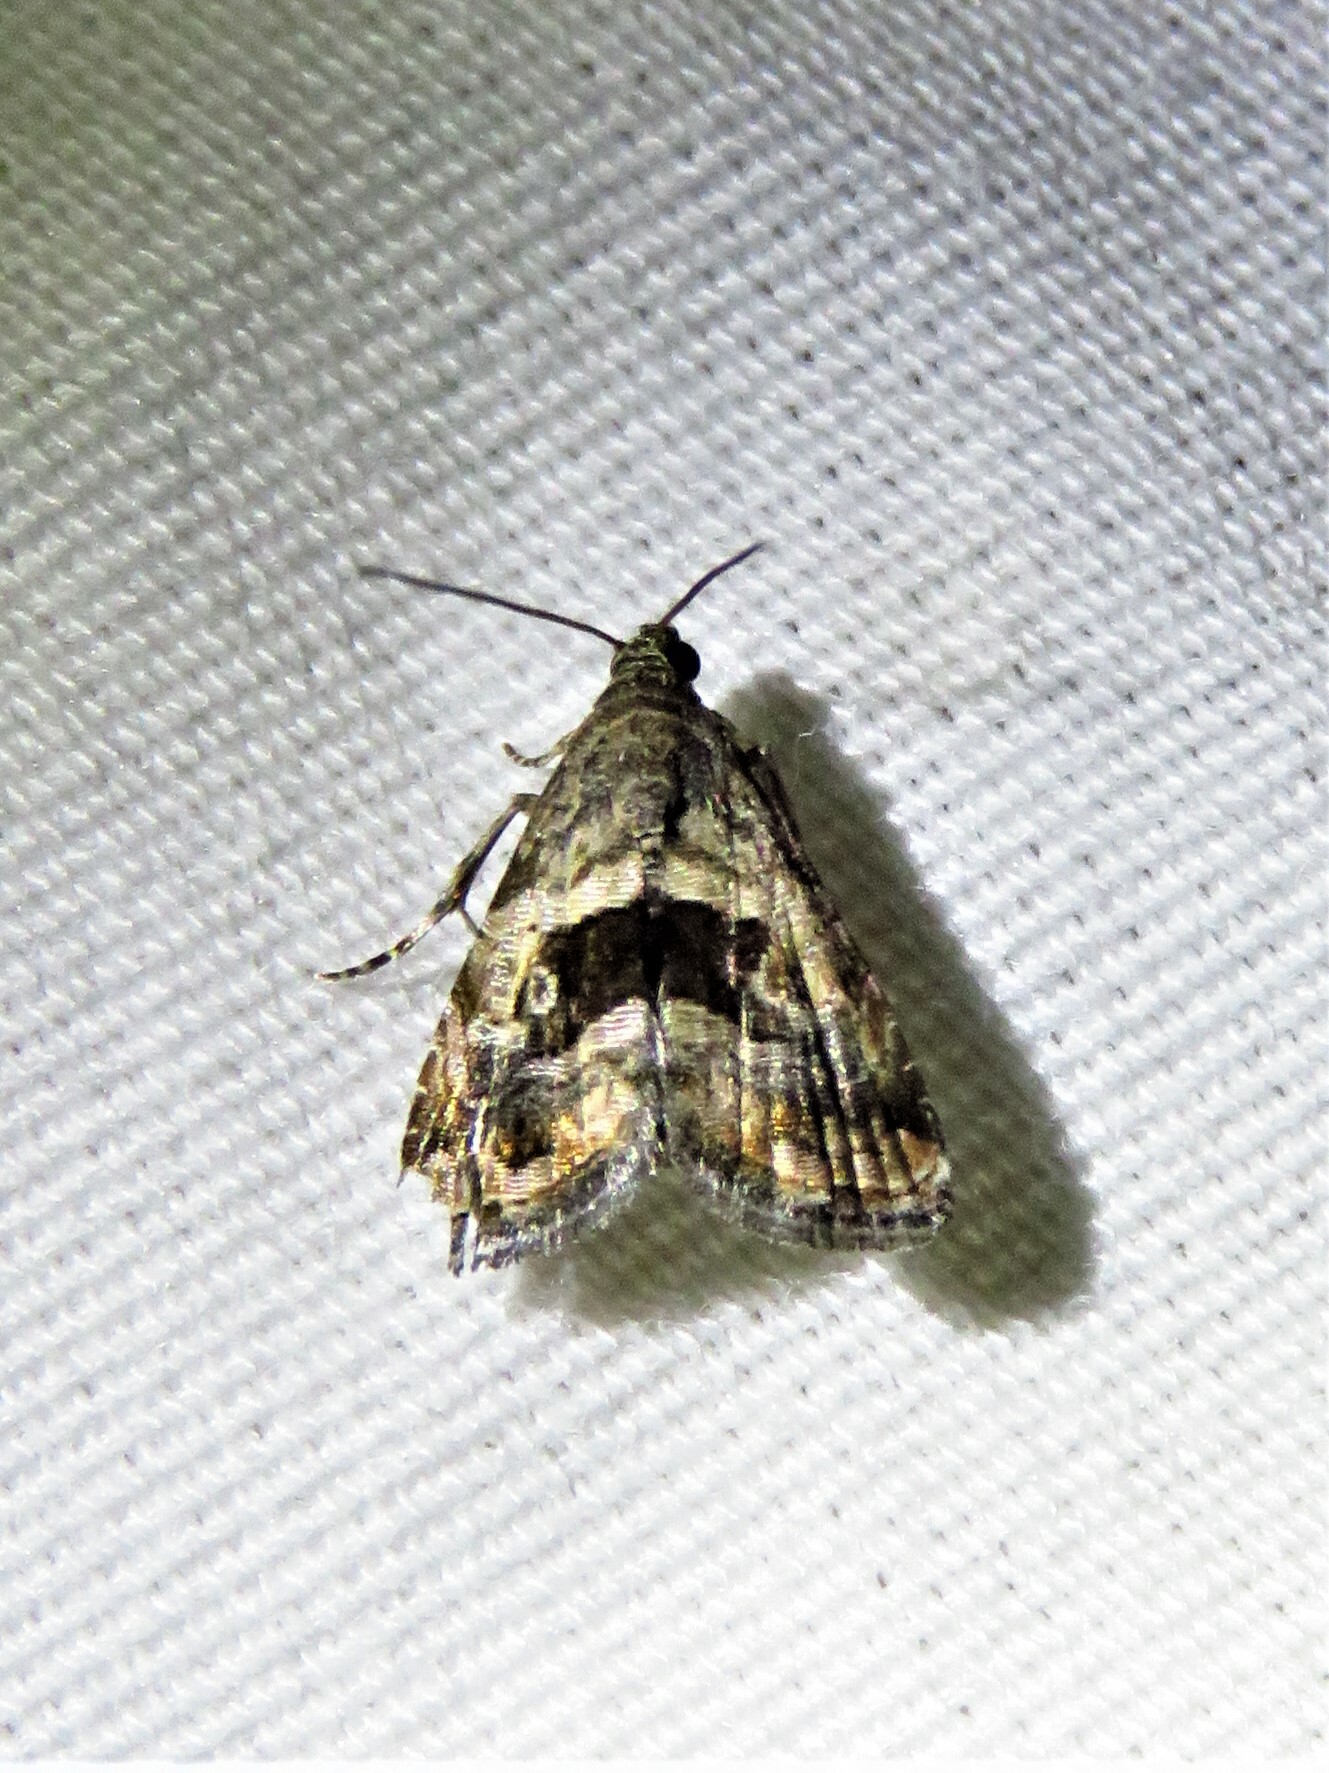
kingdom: Animalia
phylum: Arthropoda
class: Insecta
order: Lepidoptera
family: Noctuidae
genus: Tripudia
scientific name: Tripudia quadrifera
